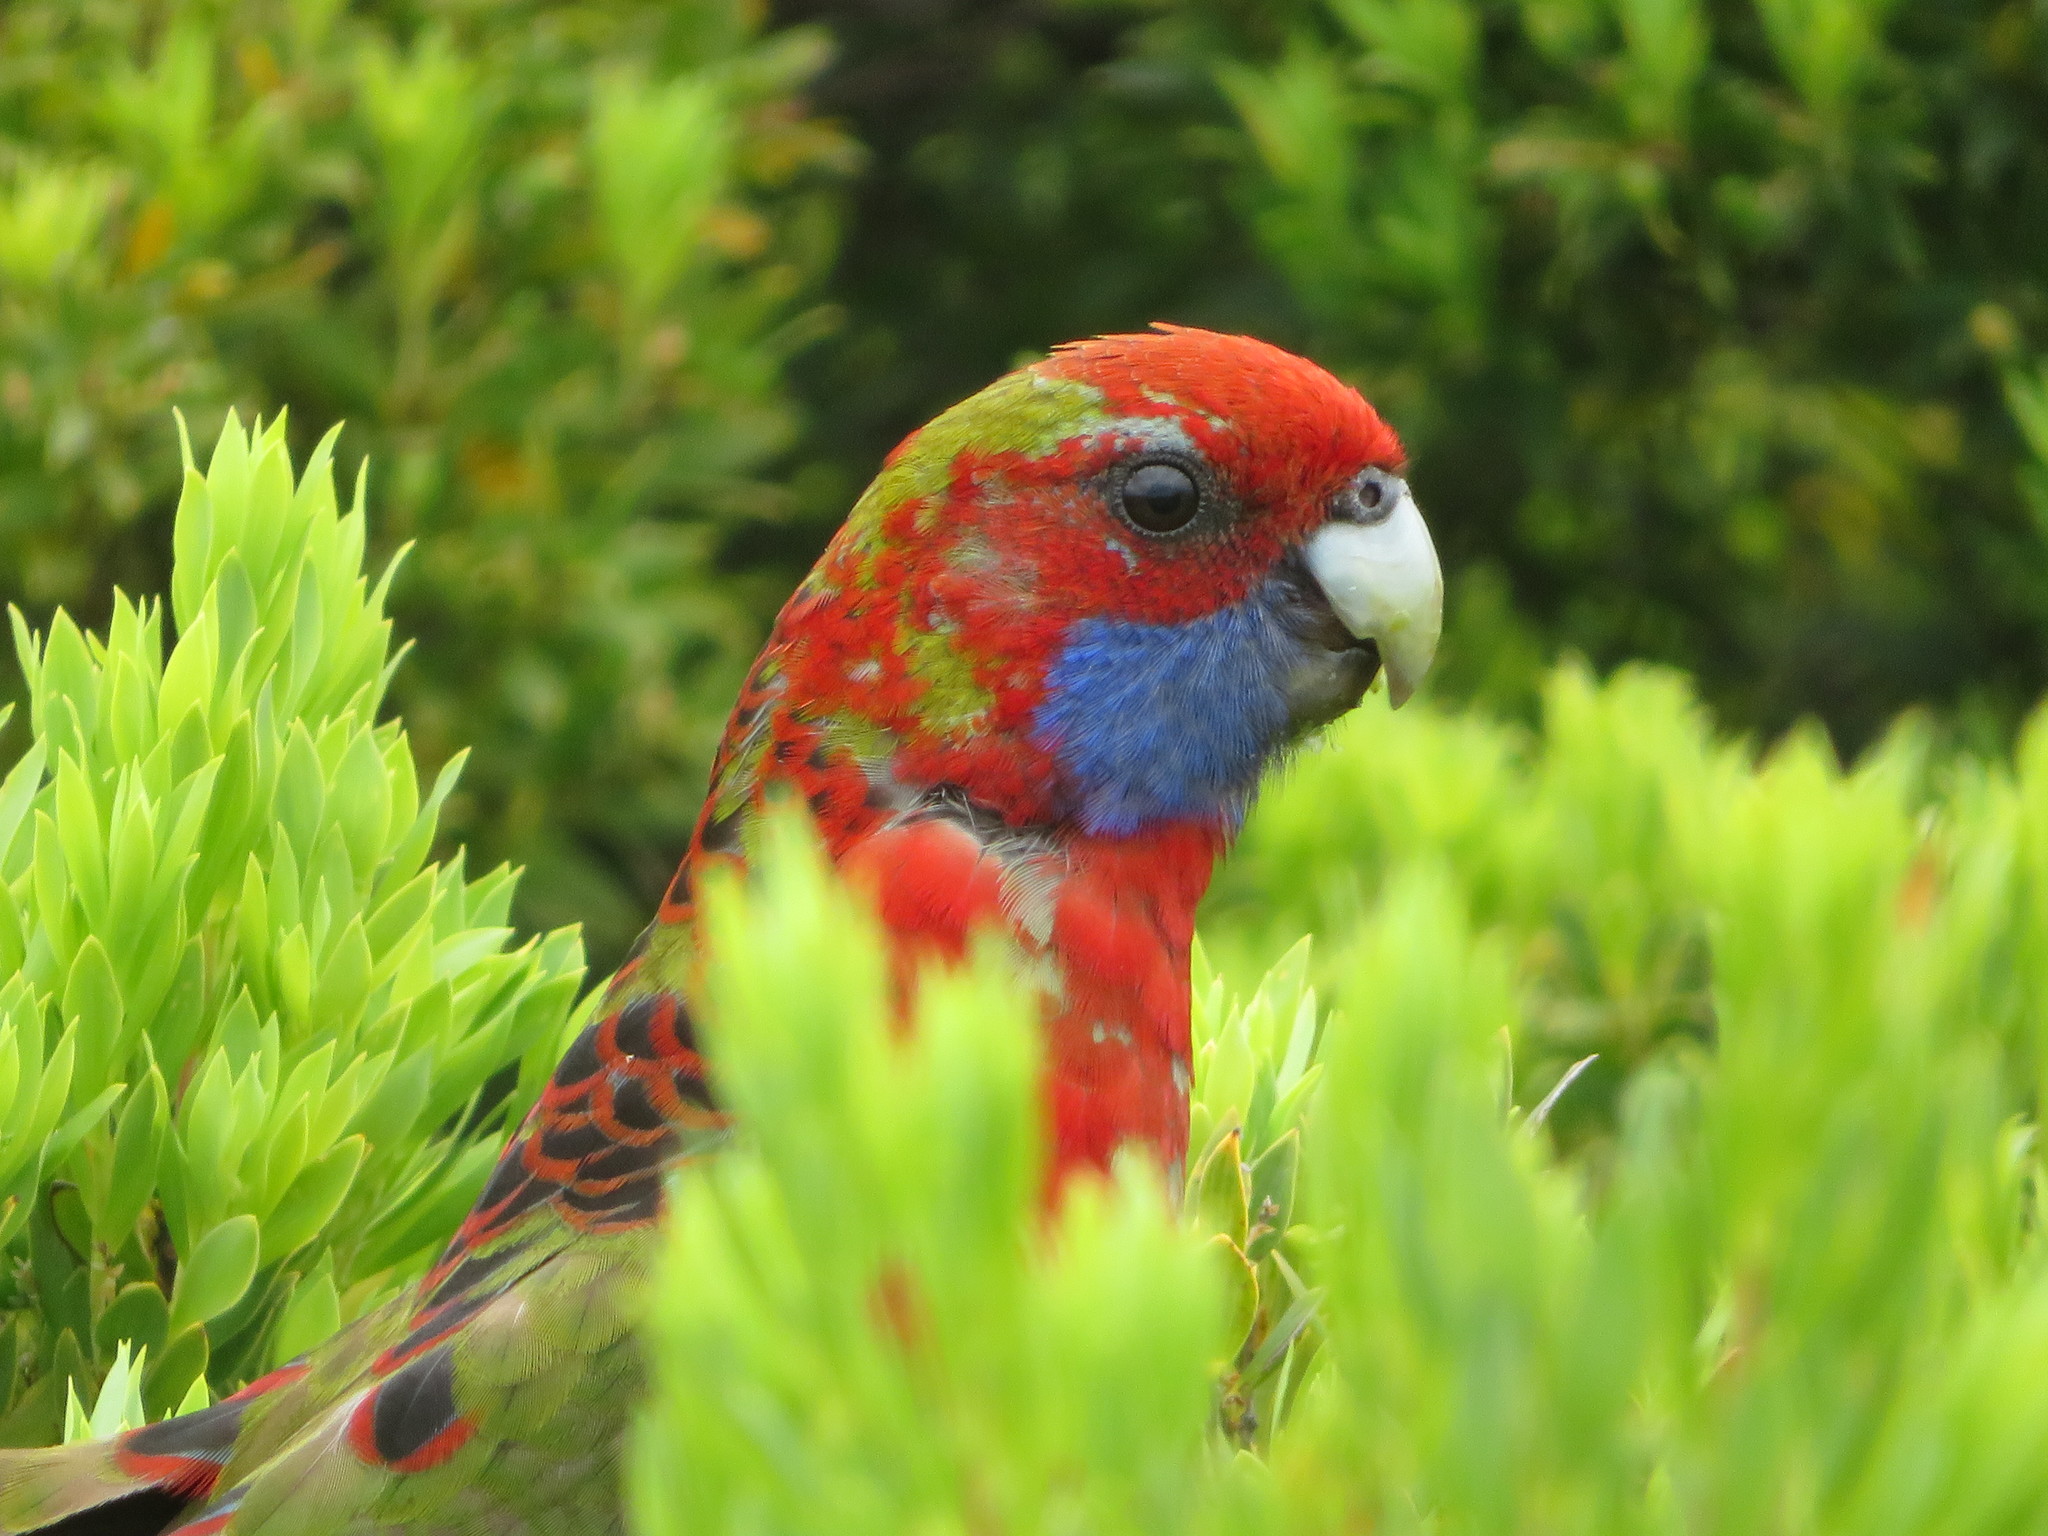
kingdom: Animalia
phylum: Chordata
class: Aves
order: Psittaciformes
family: Psittacidae
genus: Platycercus
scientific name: Platycercus elegans
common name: Crimson rosella
